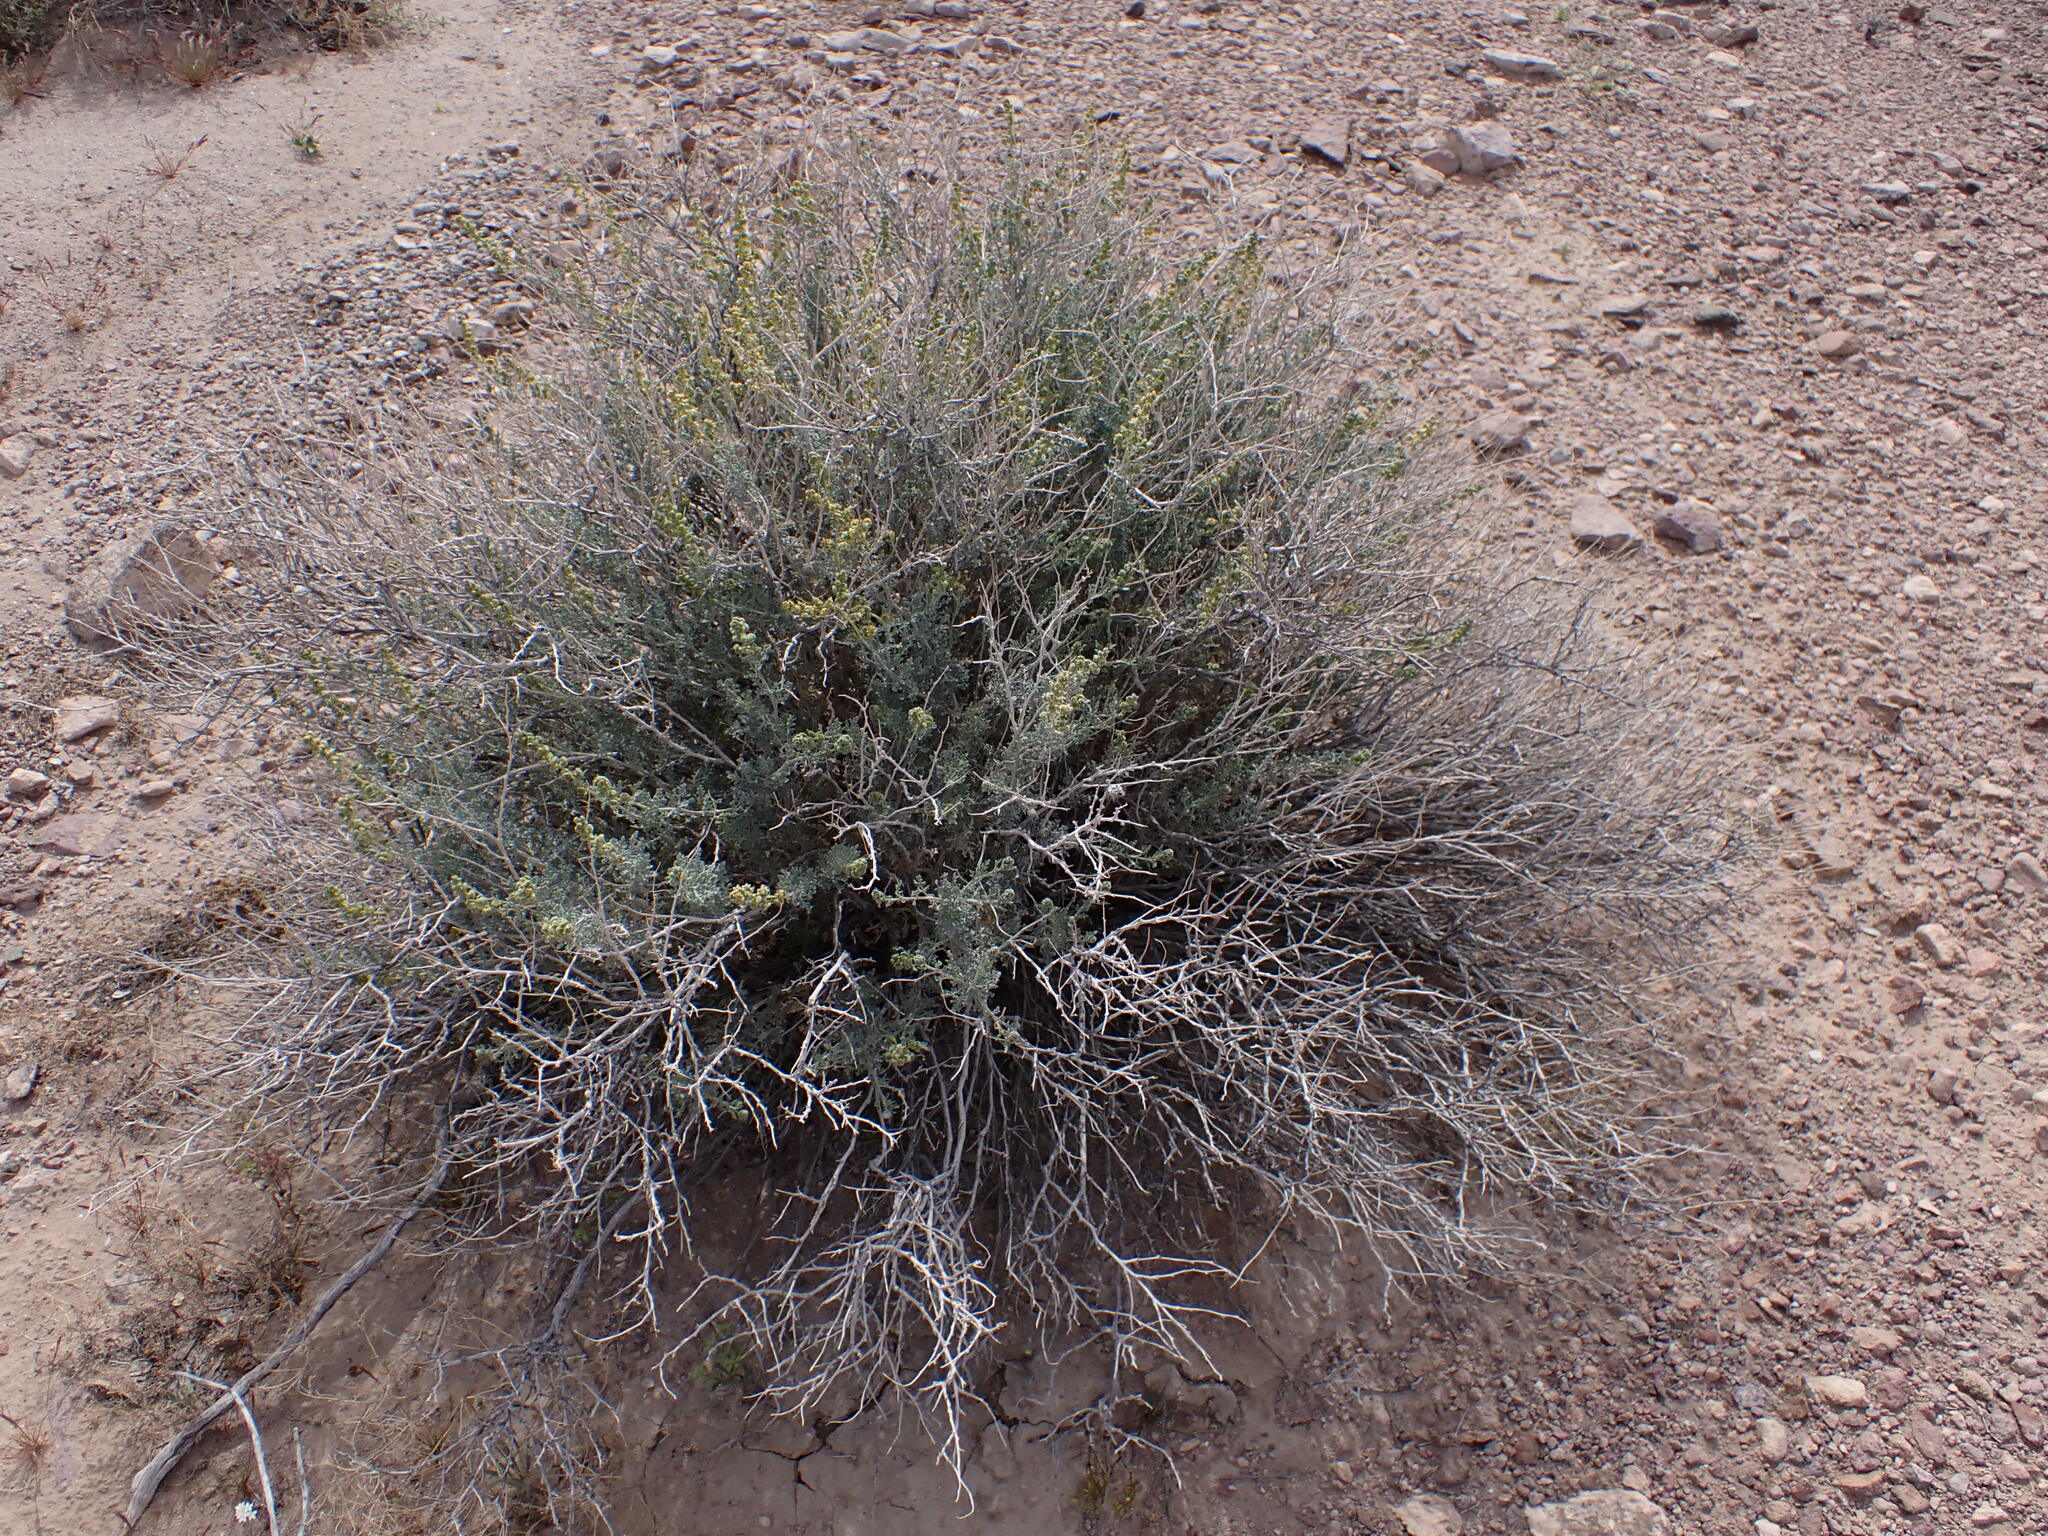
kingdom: Plantae
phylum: Tracheophyta
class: Magnoliopsida
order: Asterales
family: Asteraceae
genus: Ambrosia
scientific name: Ambrosia dumosa
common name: Bur-sage
